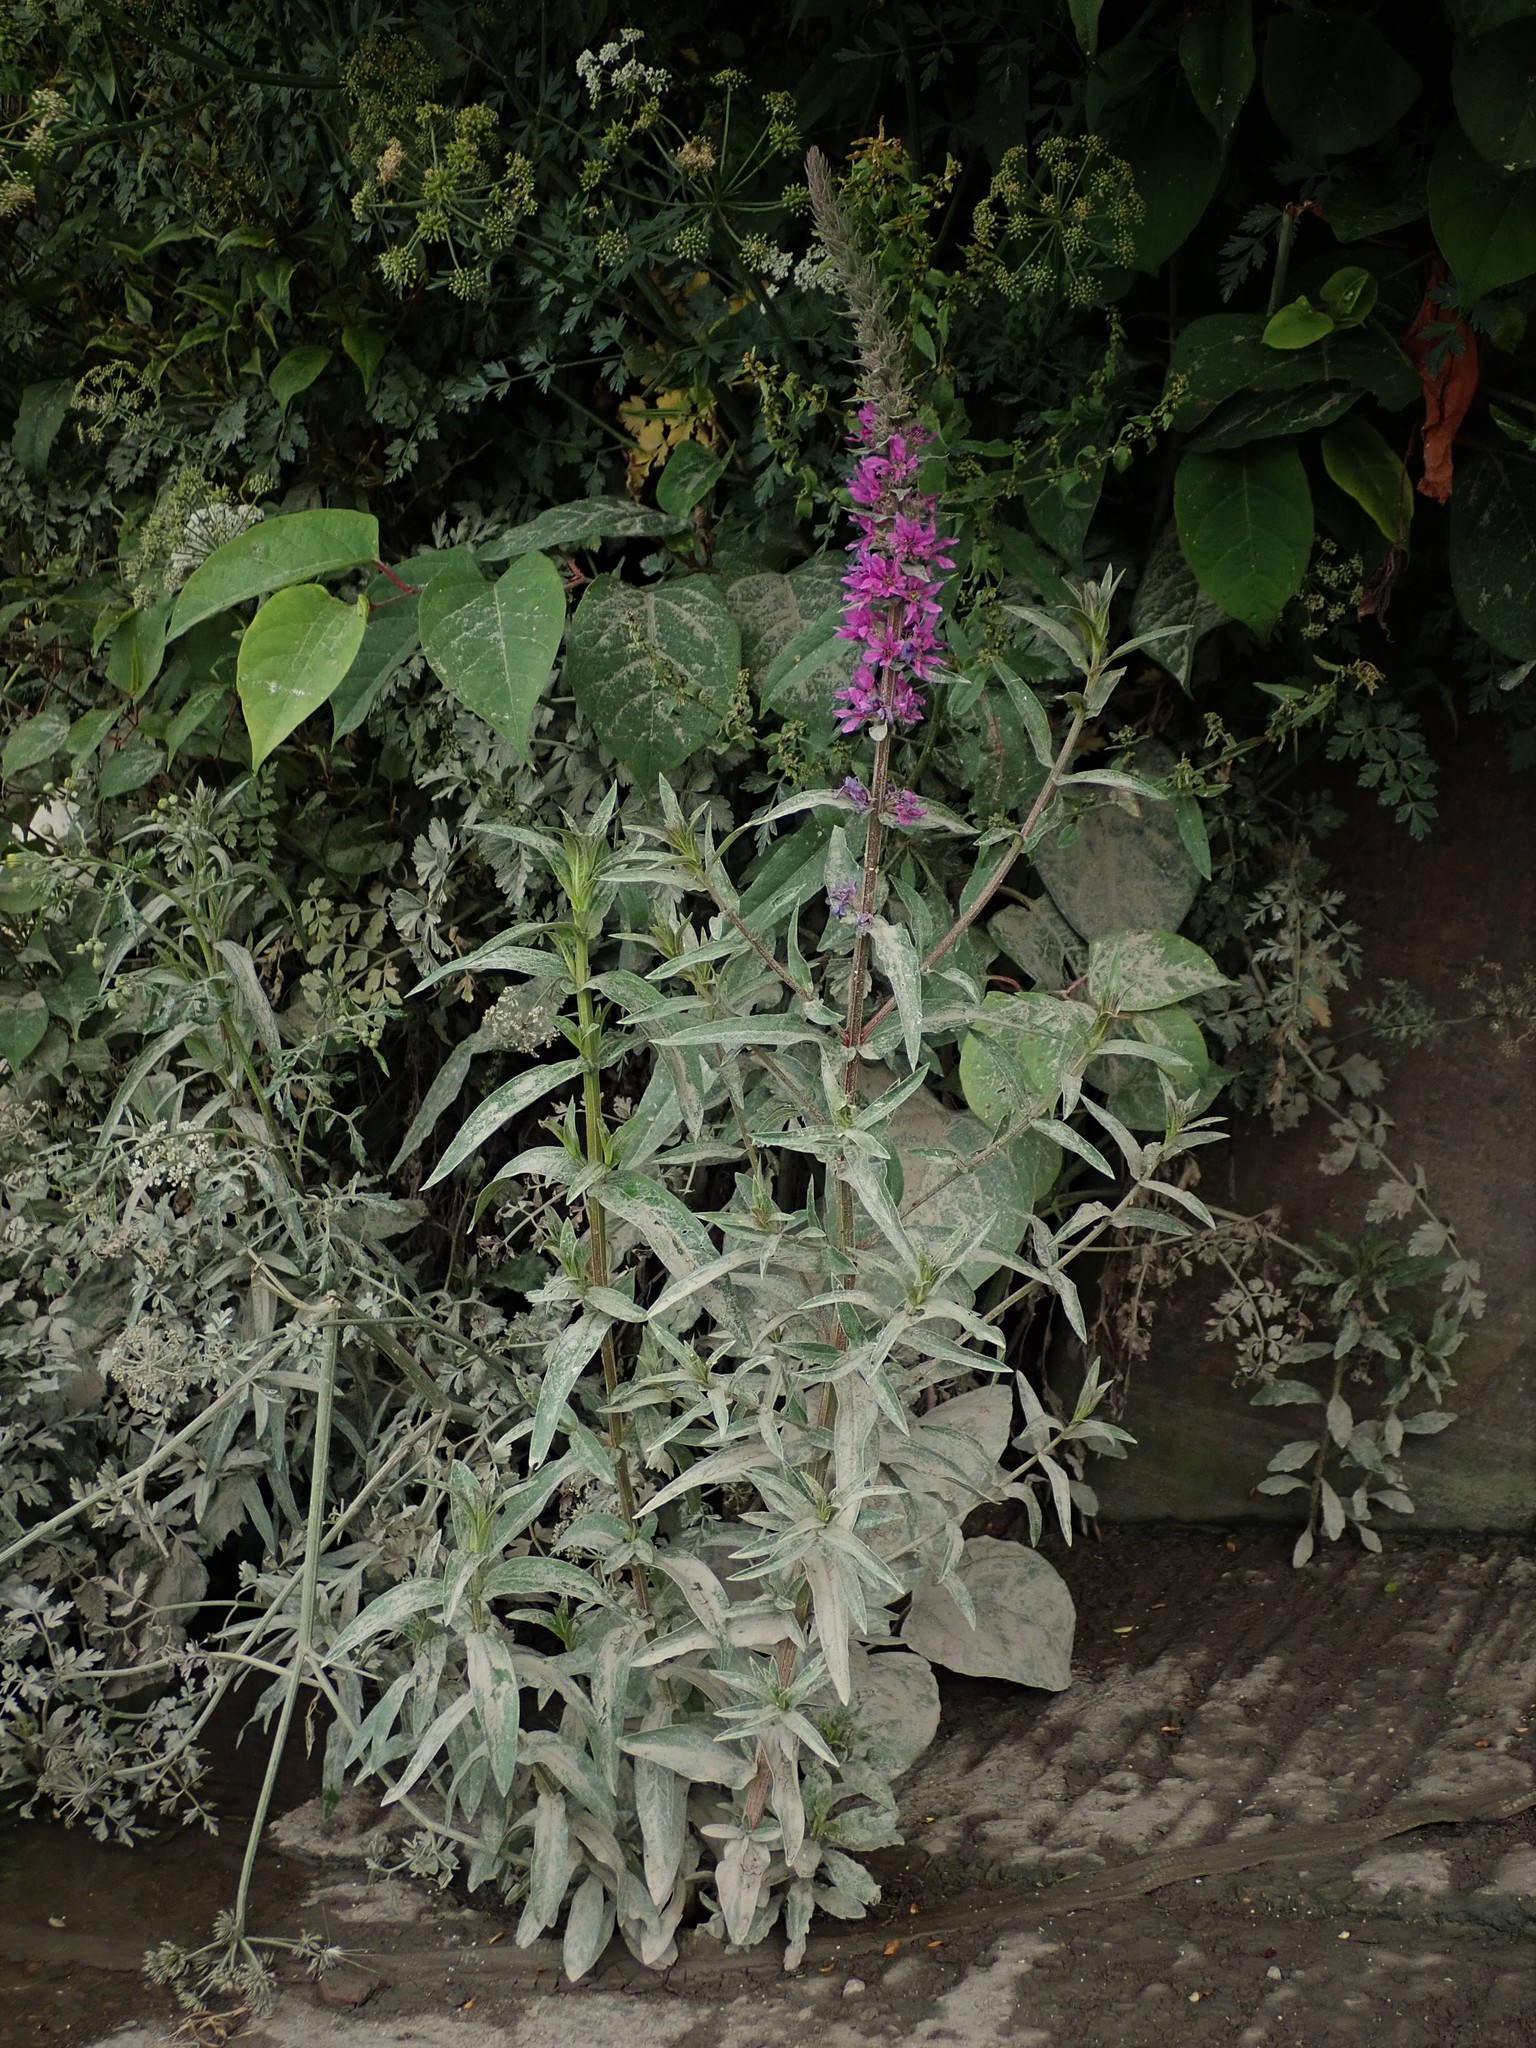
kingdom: Plantae
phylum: Tracheophyta
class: Magnoliopsida
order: Myrtales
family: Lythraceae
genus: Lythrum
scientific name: Lythrum salicaria
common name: Purple loosestrife
